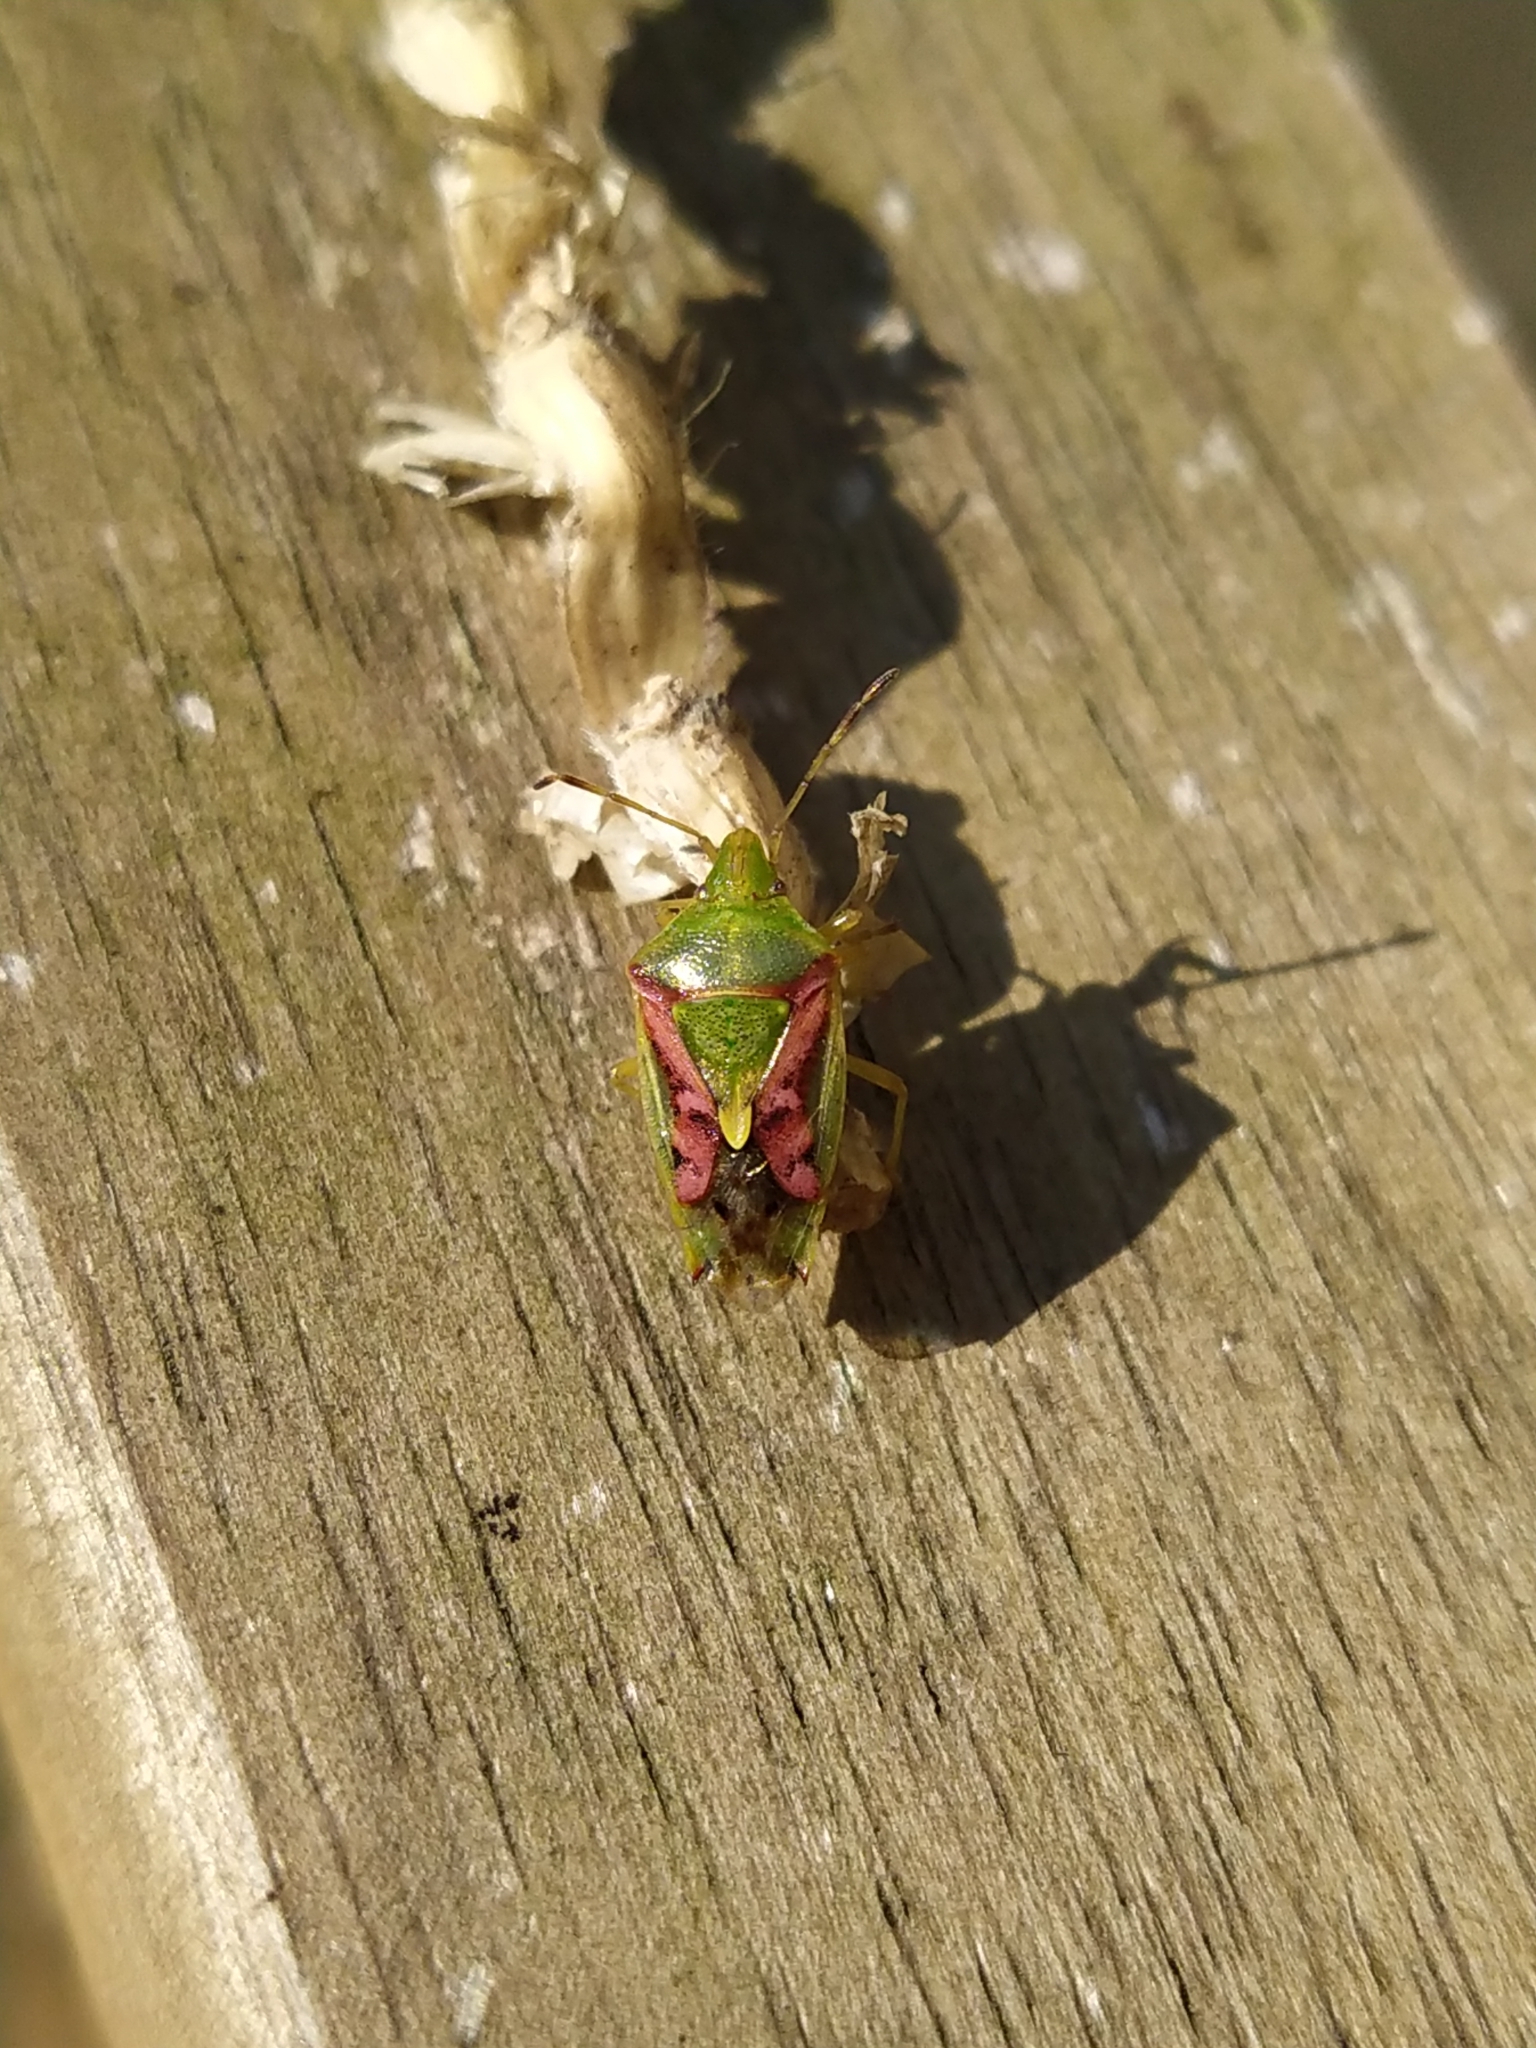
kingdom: Animalia
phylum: Arthropoda
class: Insecta
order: Hemiptera
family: Acanthosomatidae
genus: Cyphostethus
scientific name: Cyphostethus tristriatus
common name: Juniper shieldbug
